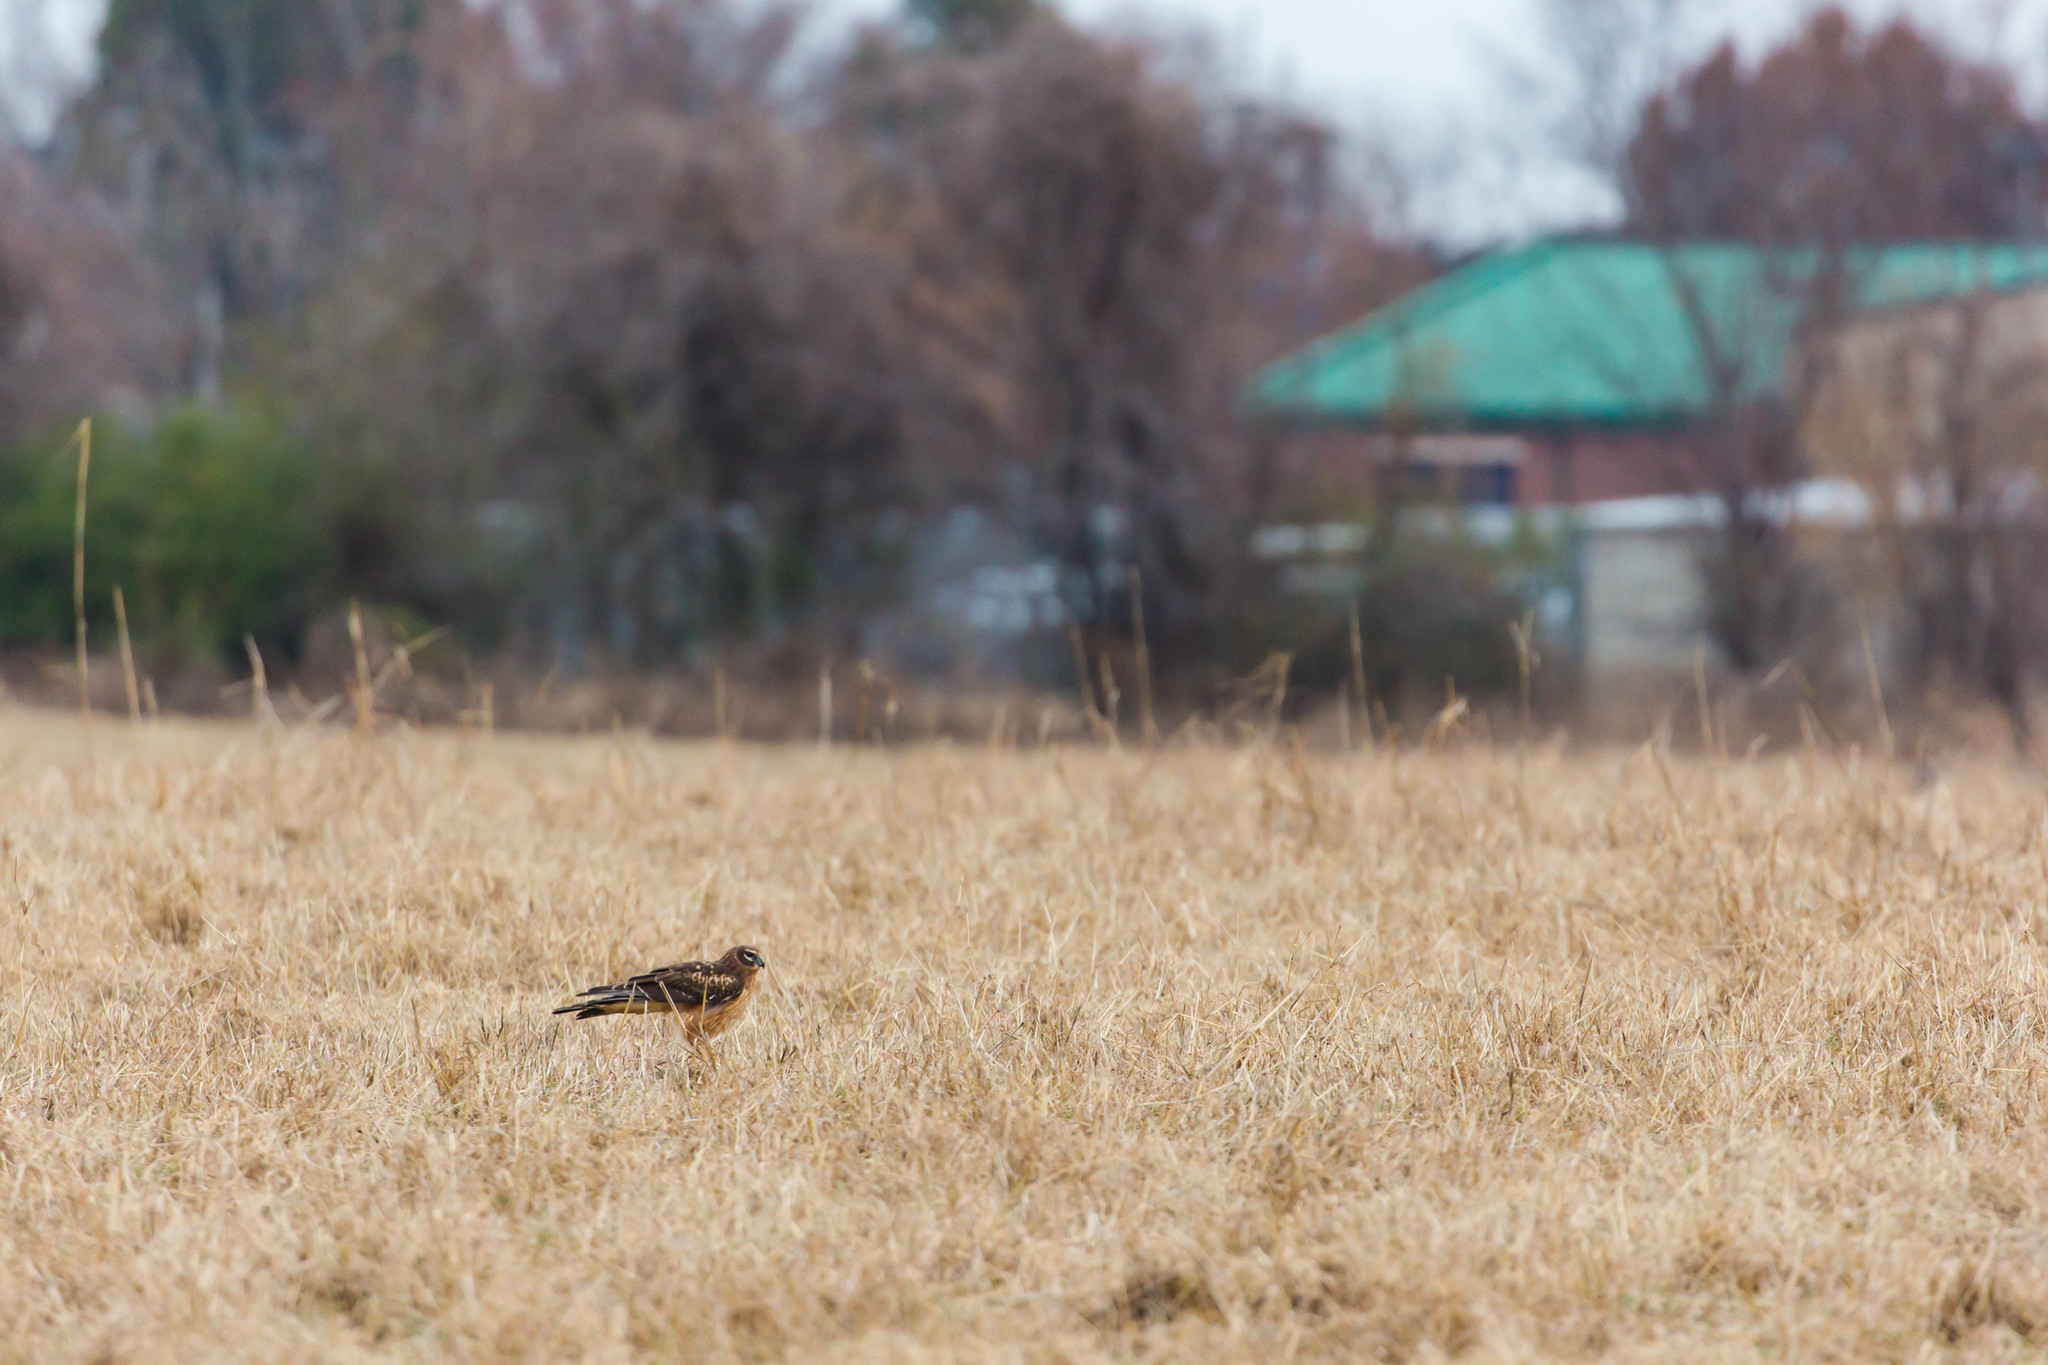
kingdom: Animalia
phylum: Chordata
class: Aves
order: Accipitriformes
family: Accipitridae
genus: Circus
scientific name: Circus cyaneus
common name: Hen harrier
